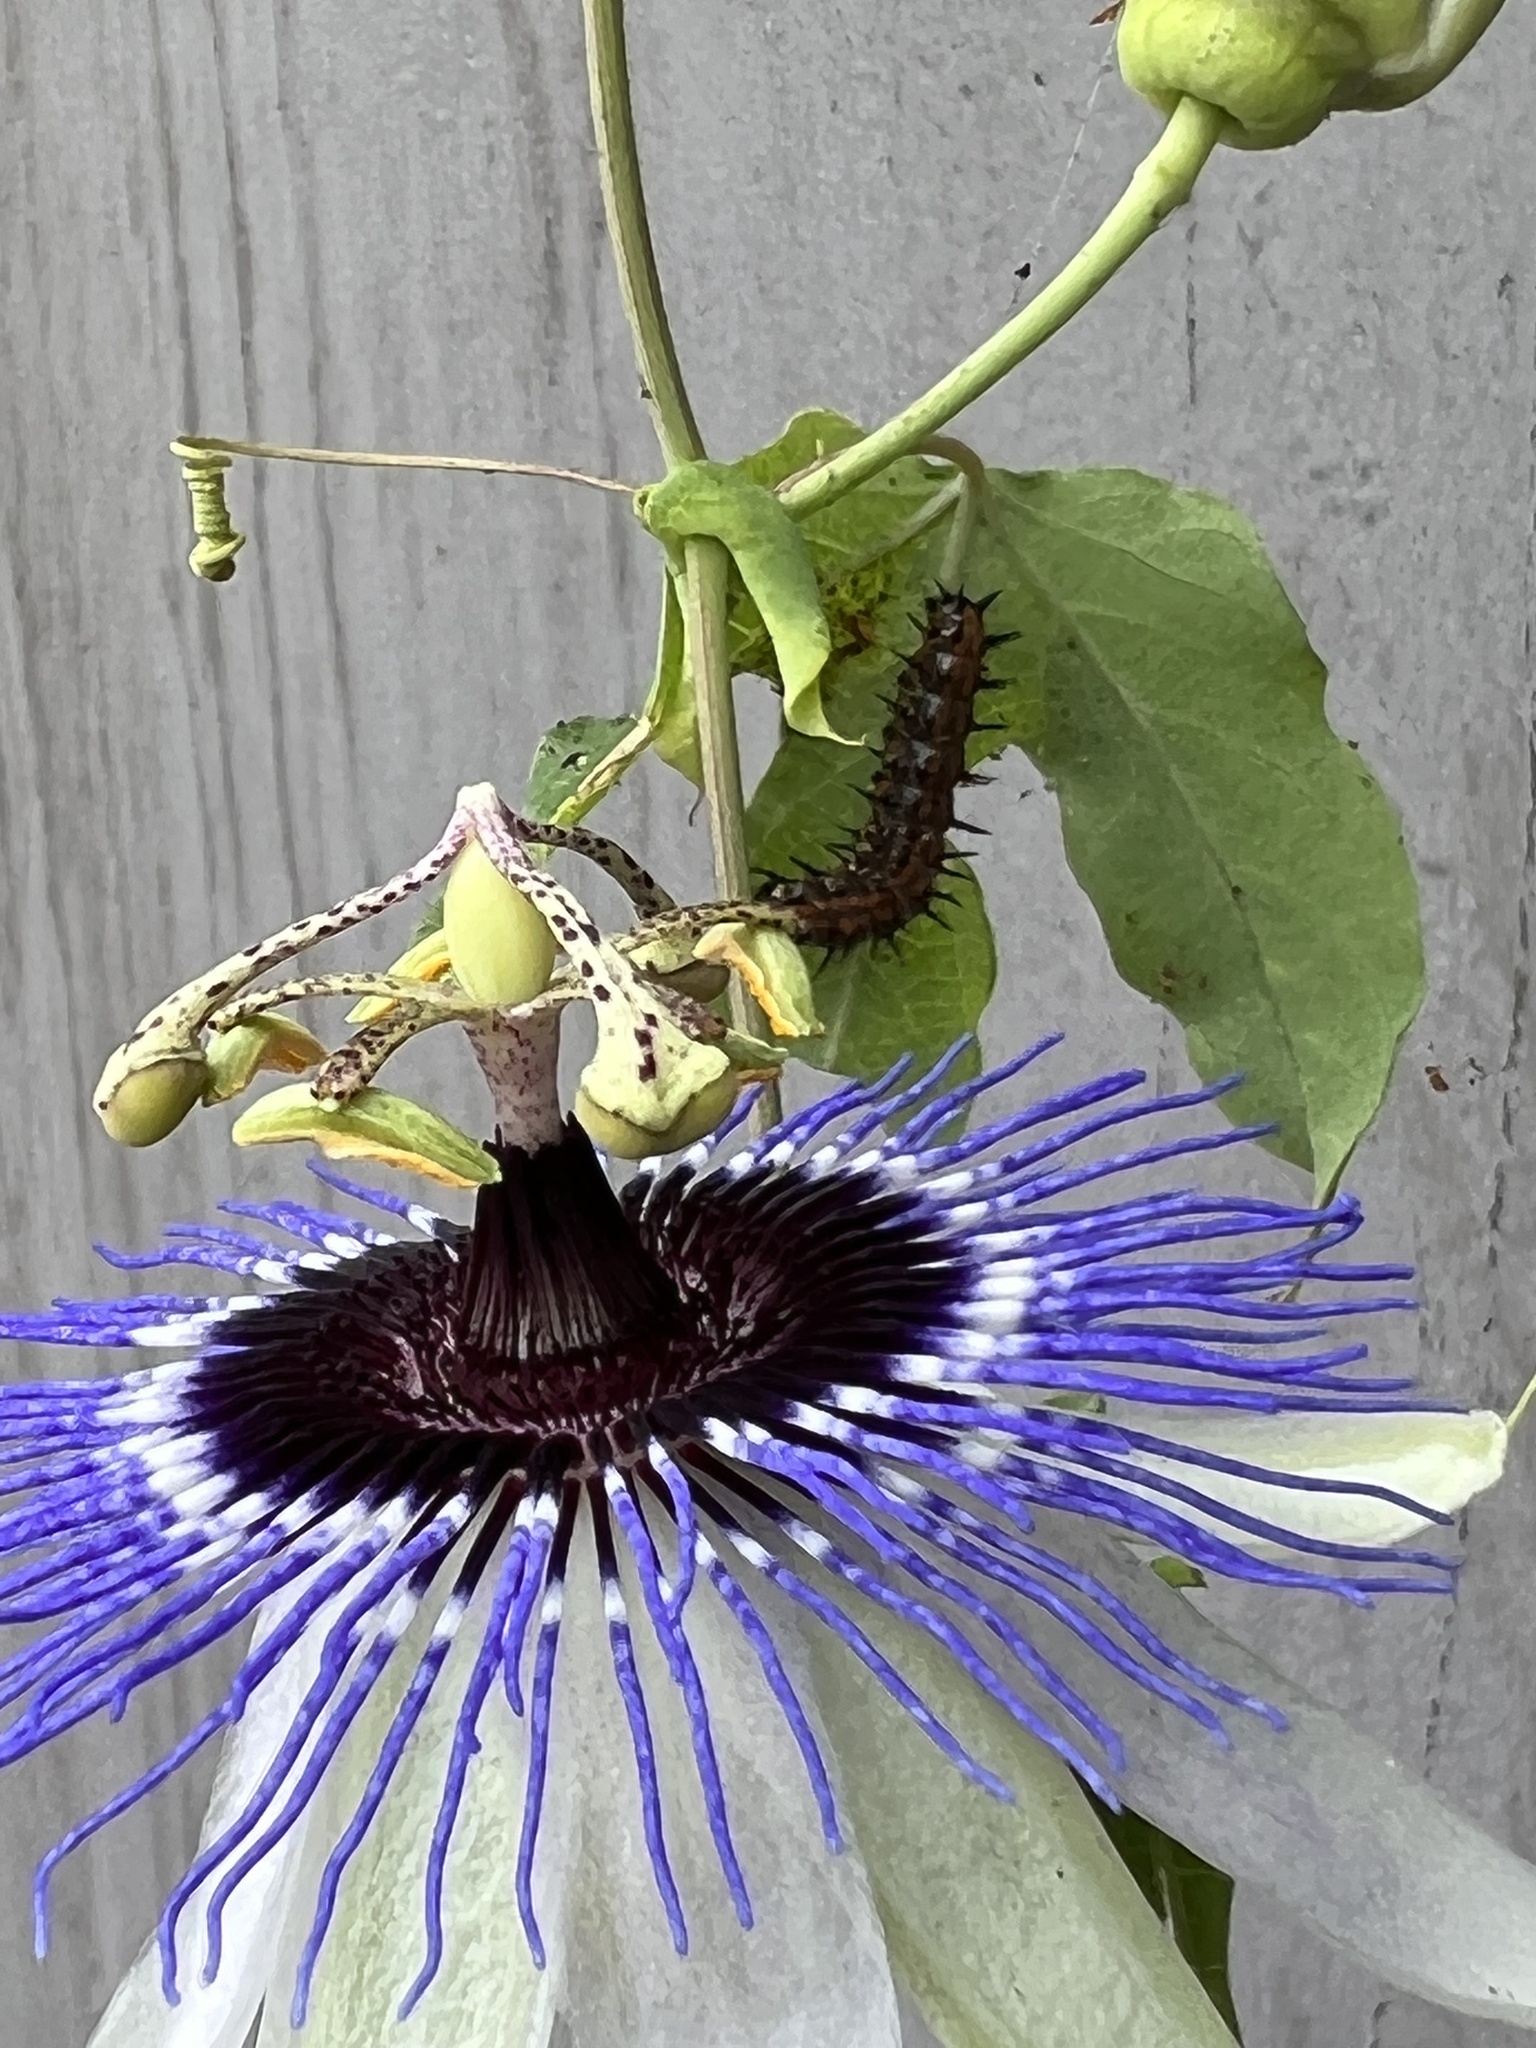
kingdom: Animalia
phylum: Arthropoda
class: Insecta
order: Lepidoptera
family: Nymphalidae
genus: Dione
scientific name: Dione vanillae
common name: Gulf fritillary
